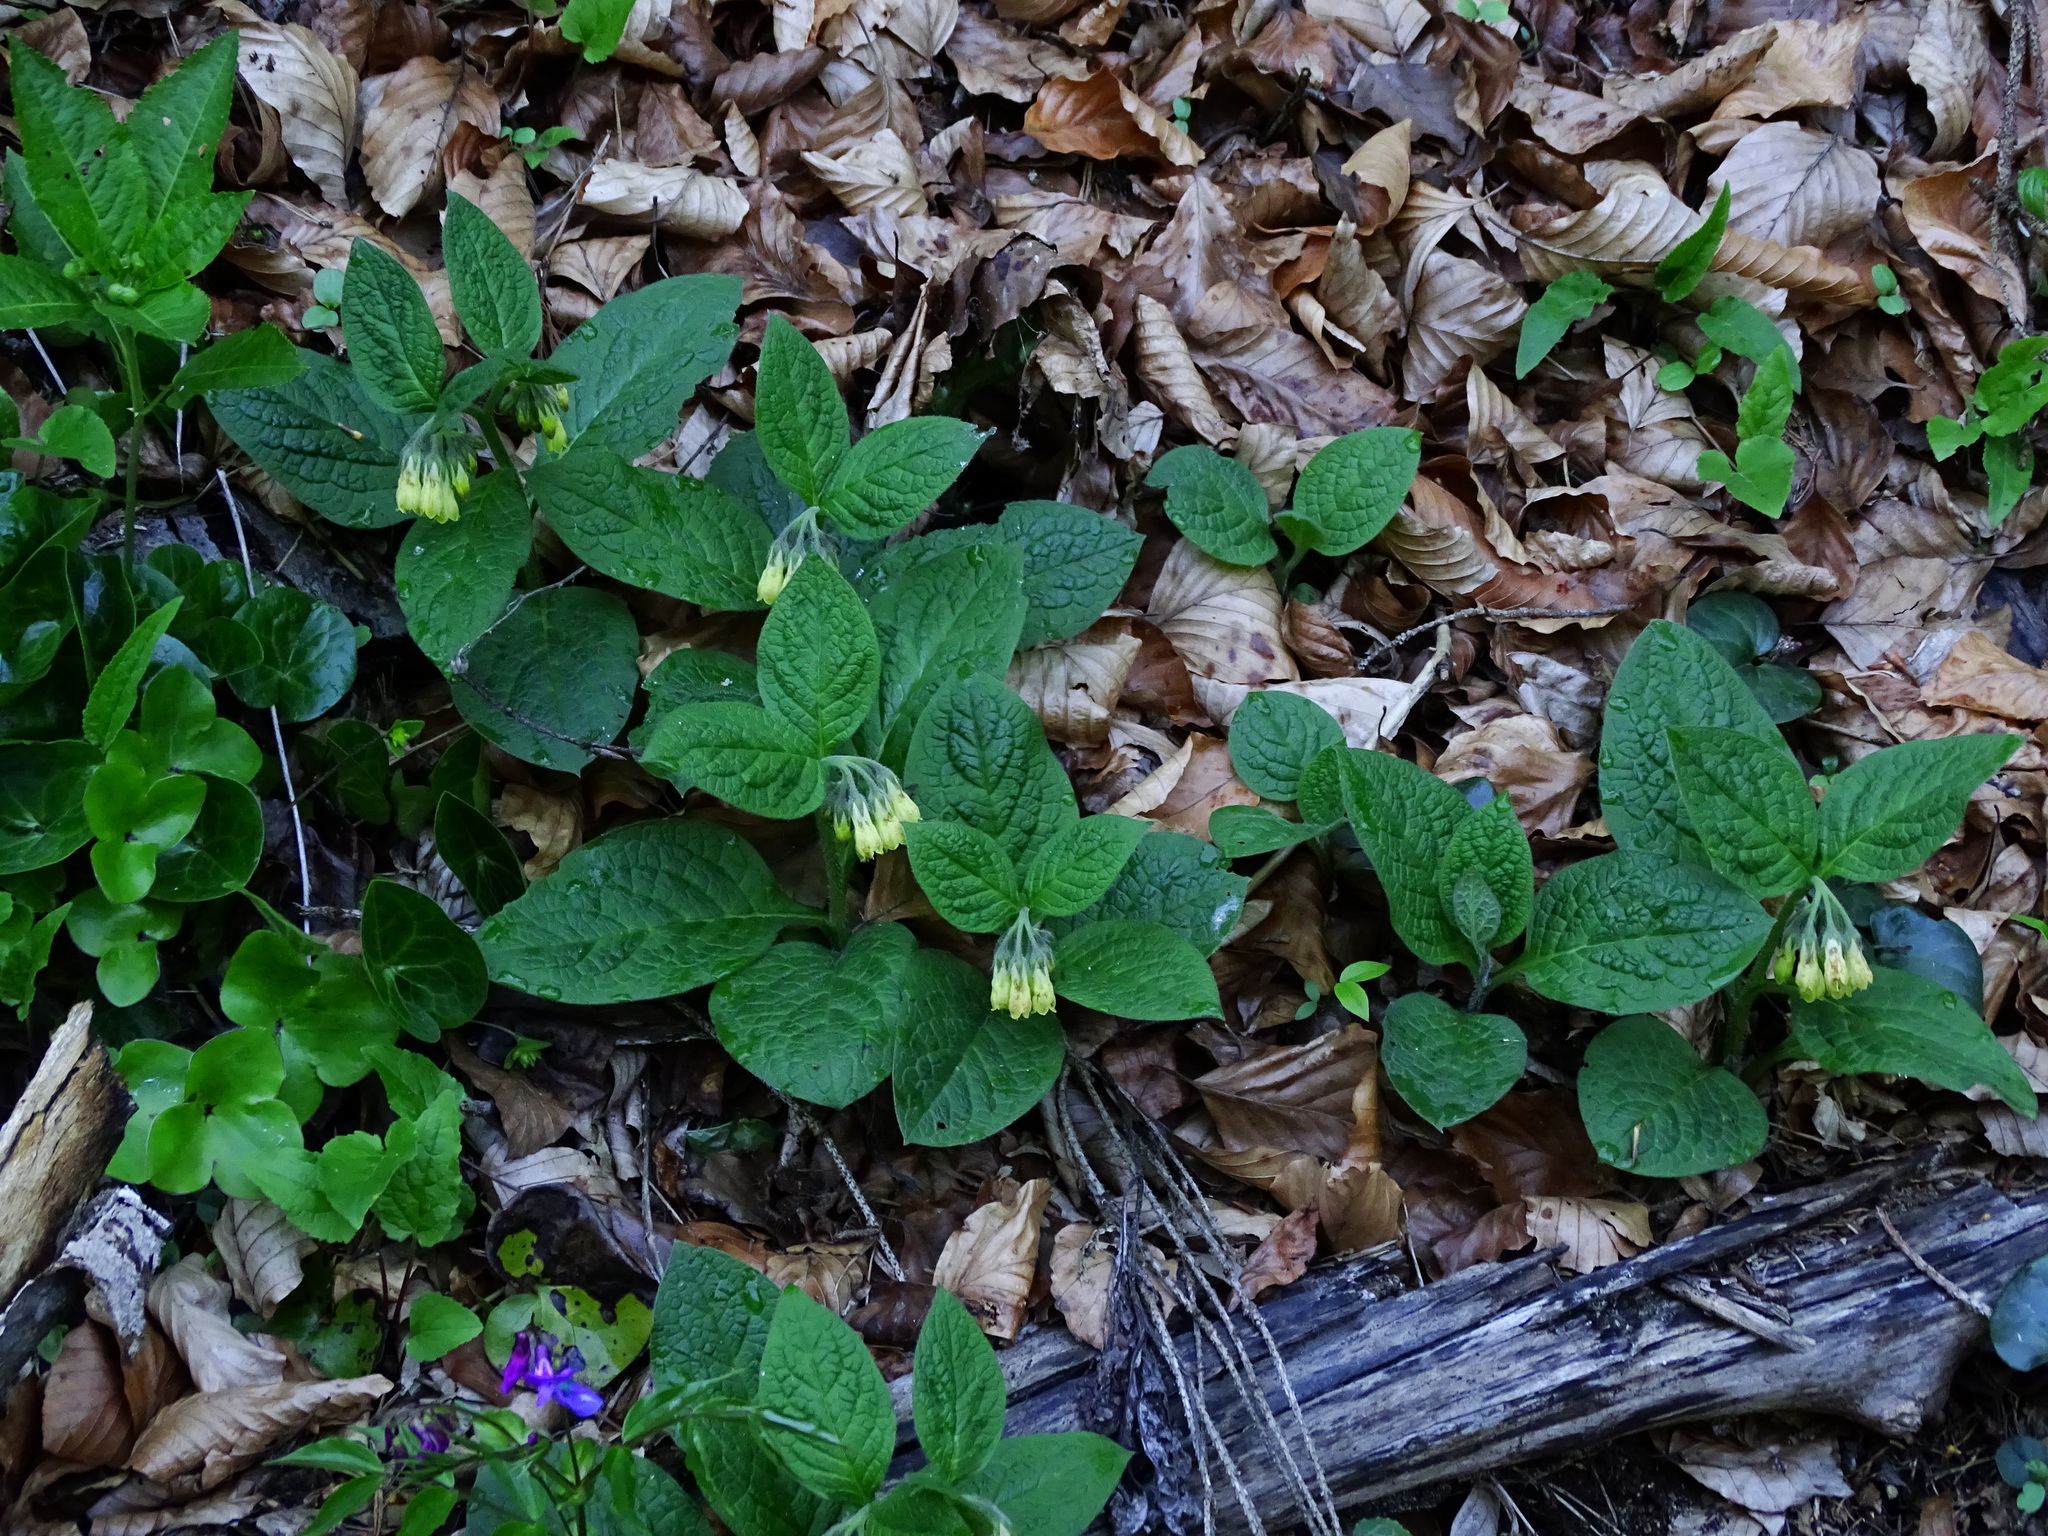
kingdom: Plantae
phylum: Tracheophyta
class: Magnoliopsida
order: Boraginales
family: Boraginaceae
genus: Symphytum
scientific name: Symphytum tuberosum
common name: Tuberous comfrey
